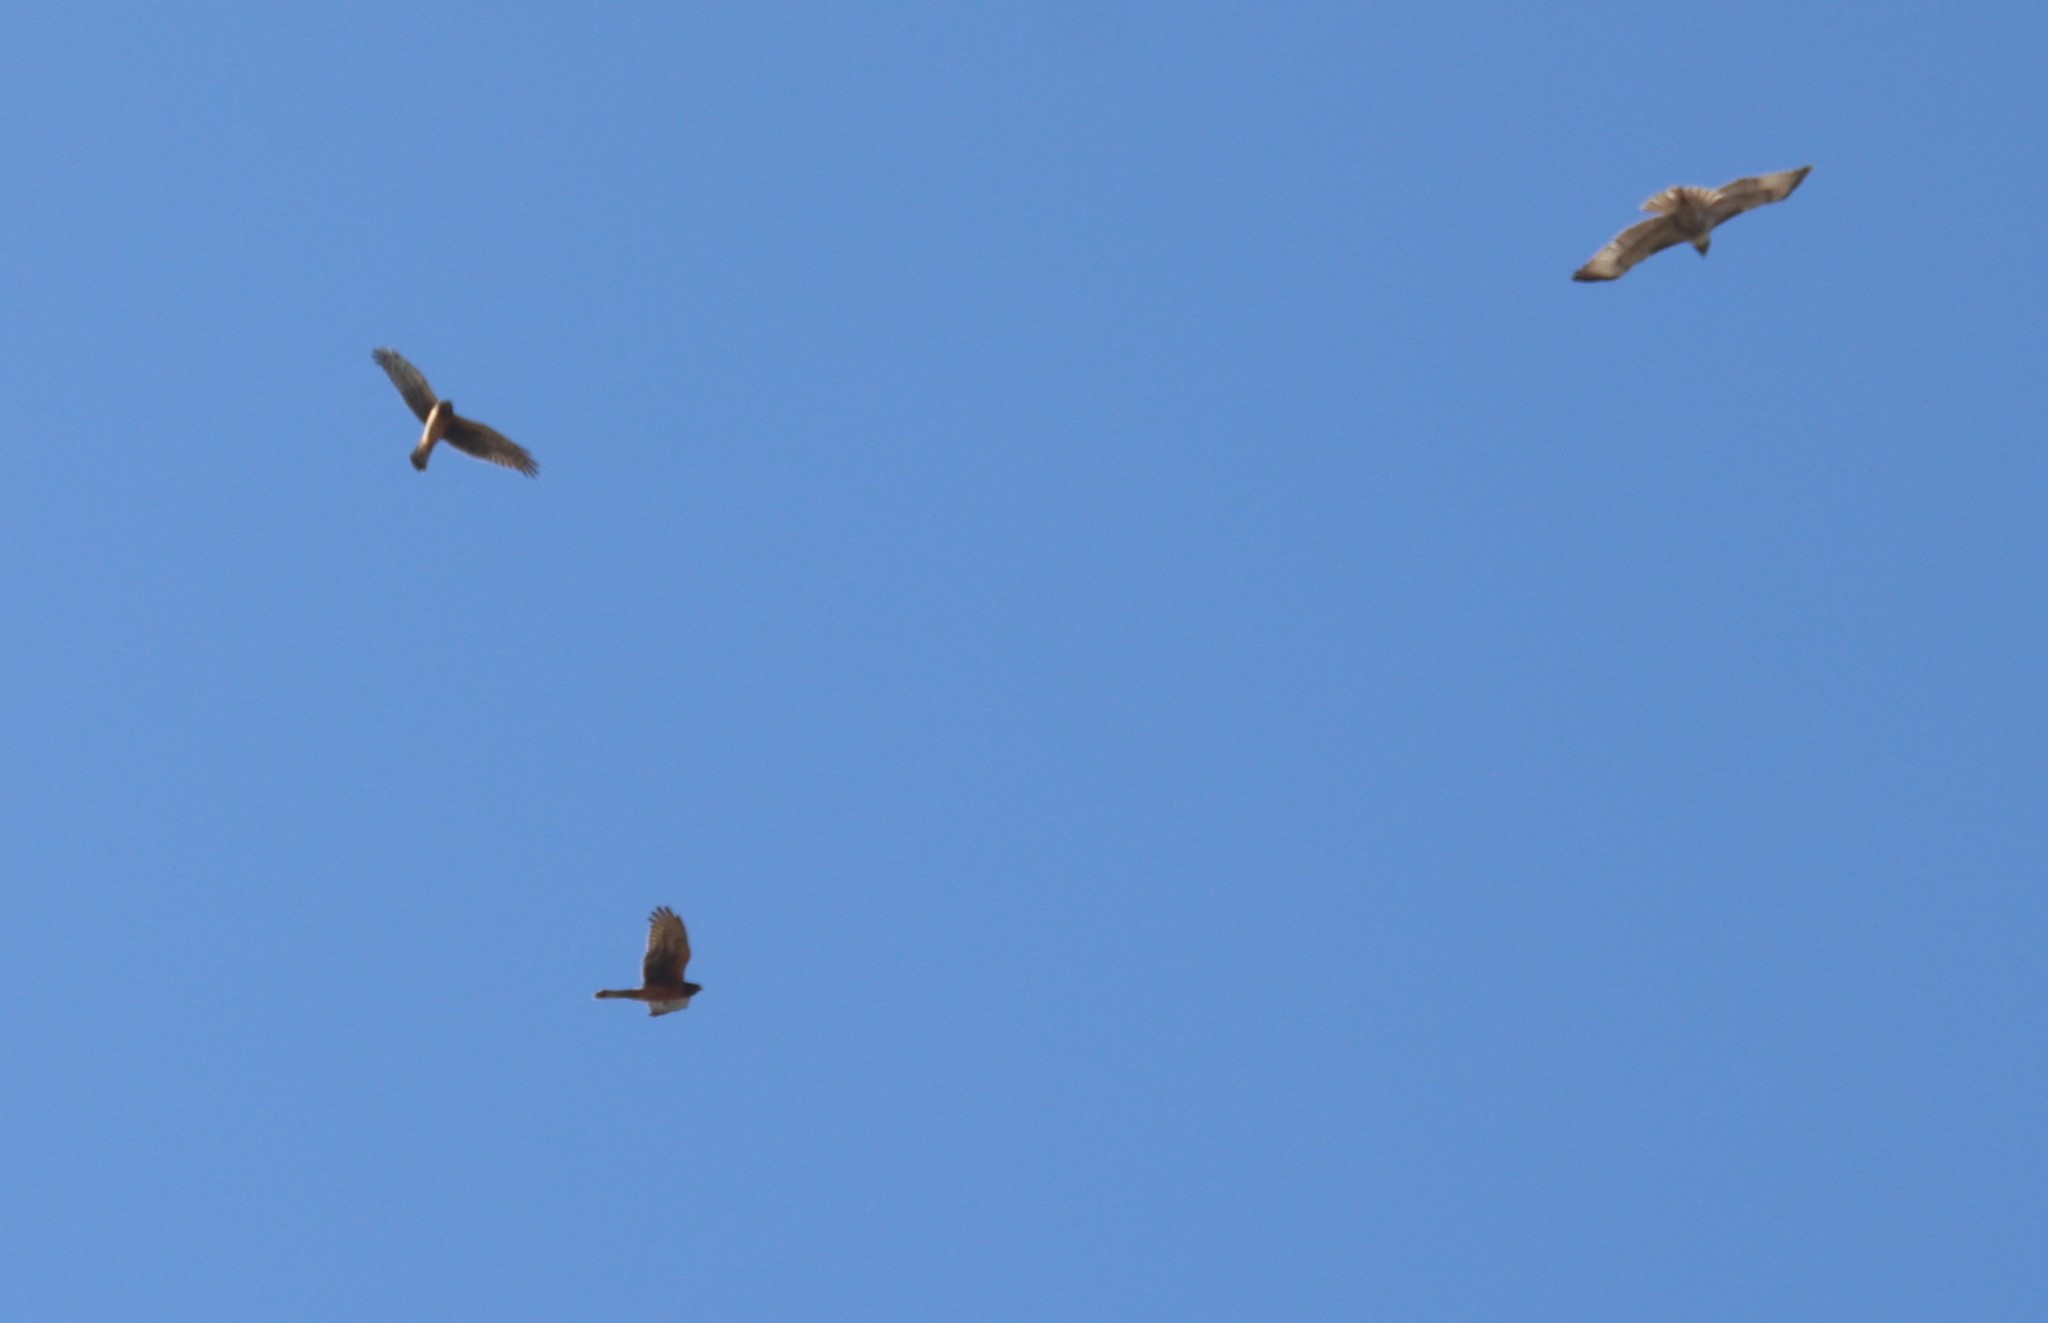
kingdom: Animalia
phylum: Chordata
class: Aves
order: Accipitriformes
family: Accipitridae
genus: Buteo
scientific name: Buteo jamaicensis
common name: Red-tailed hawk
